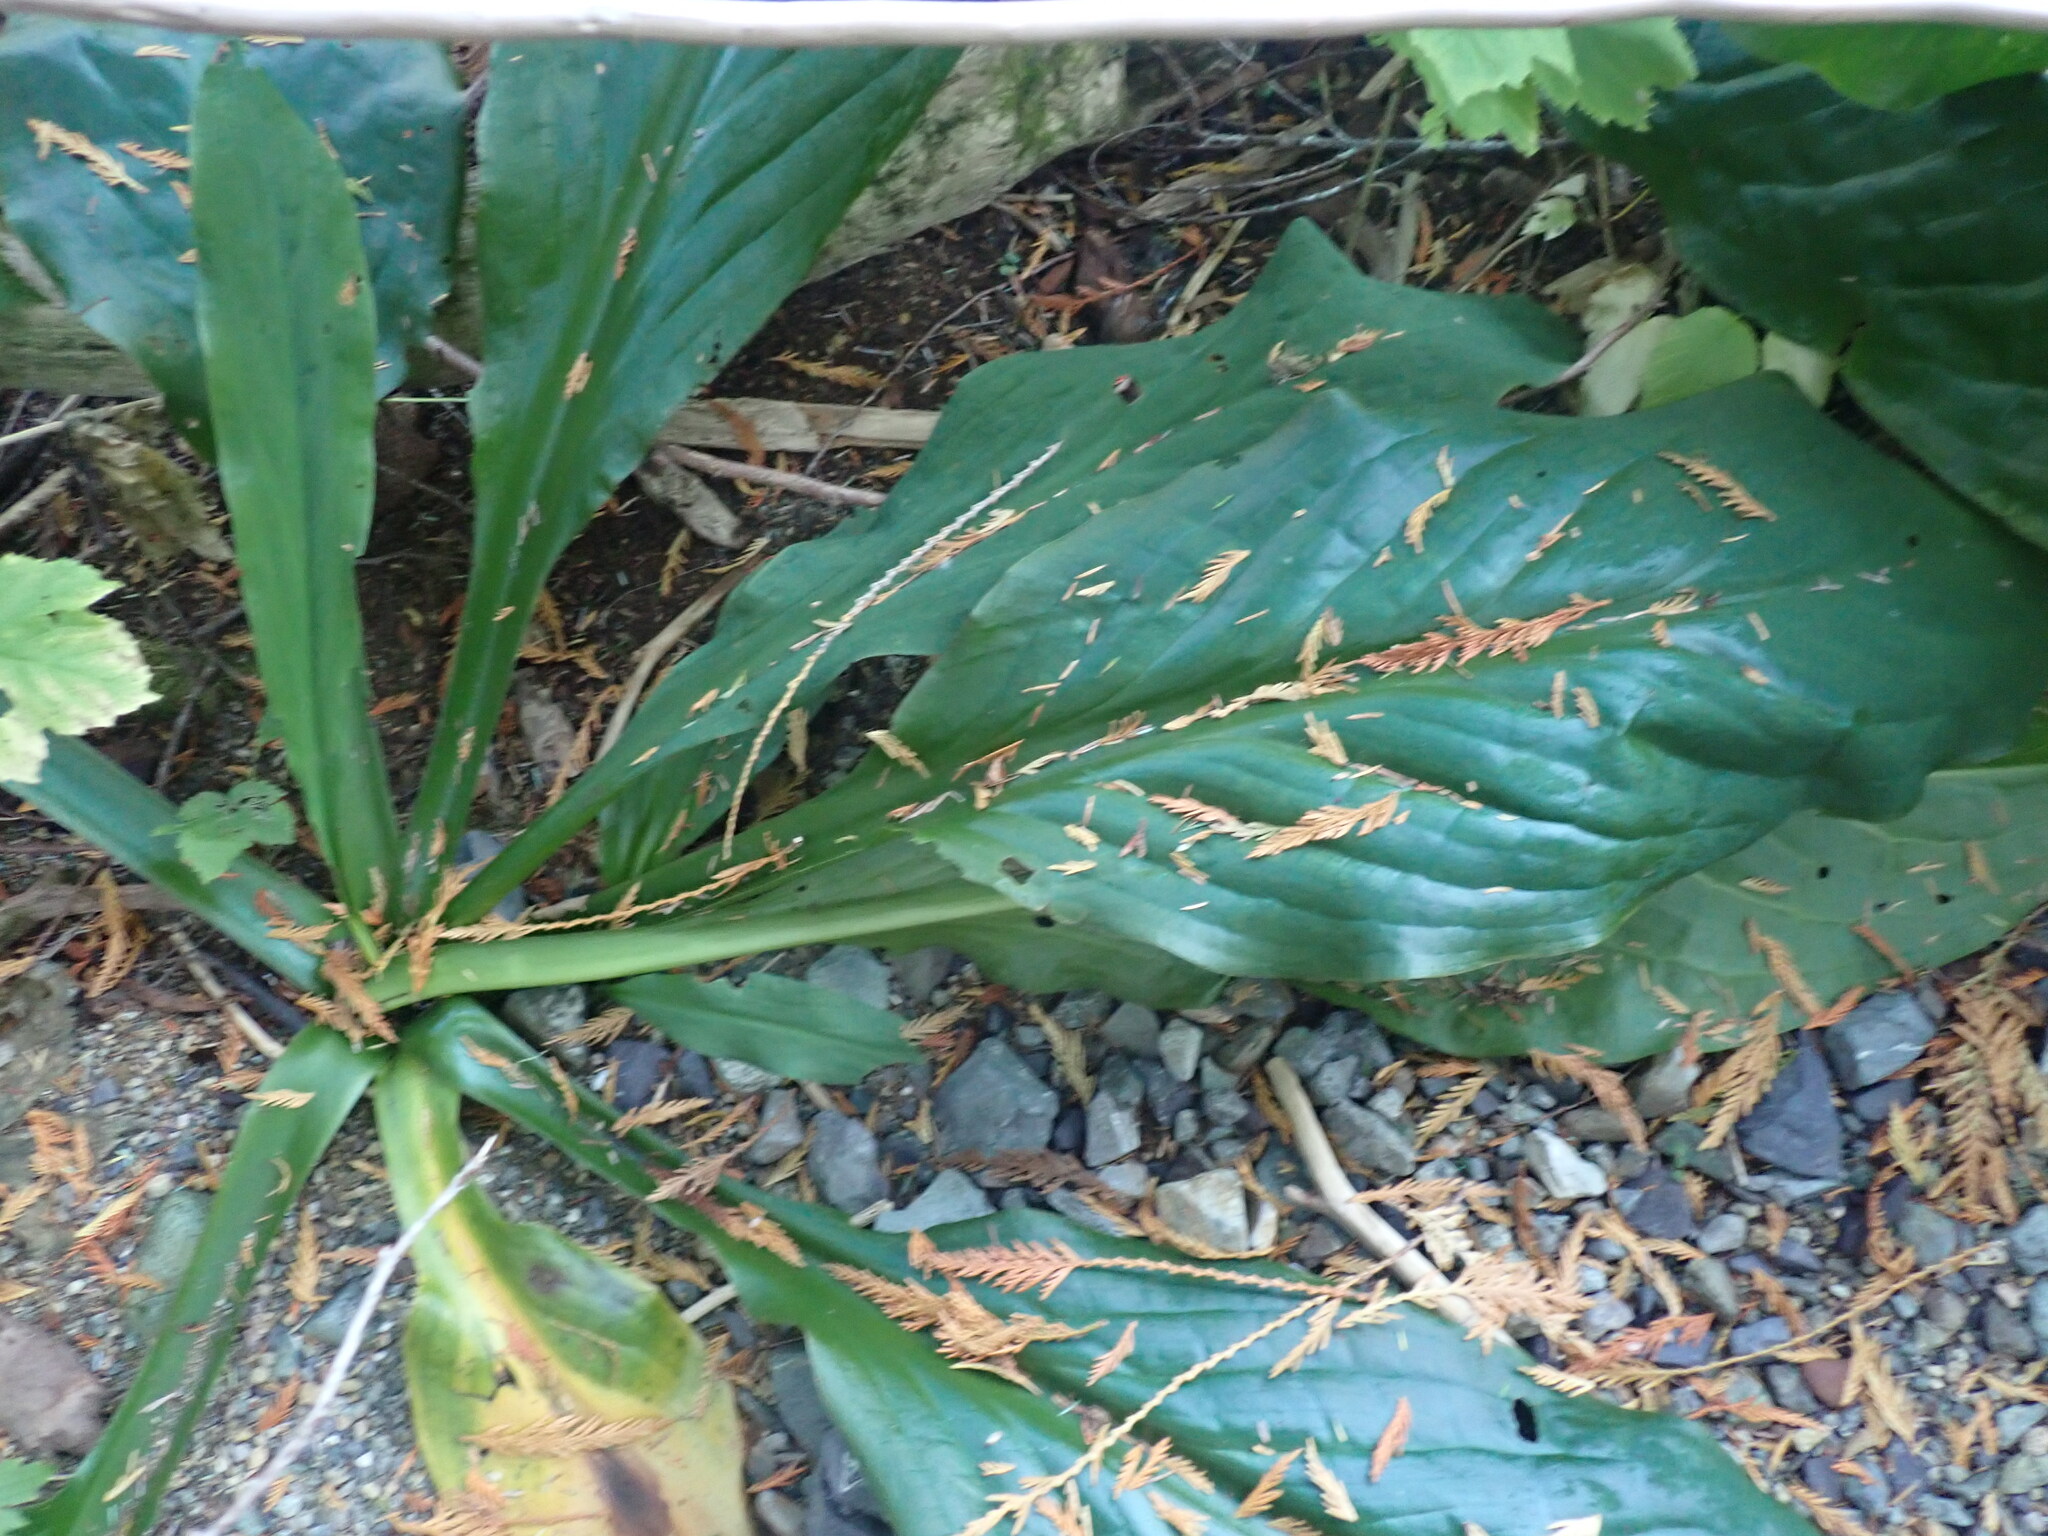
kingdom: Plantae
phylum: Tracheophyta
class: Liliopsida
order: Alismatales
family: Araceae
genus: Lysichiton
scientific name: Lysichiton americanus
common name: American skunk cabbage
